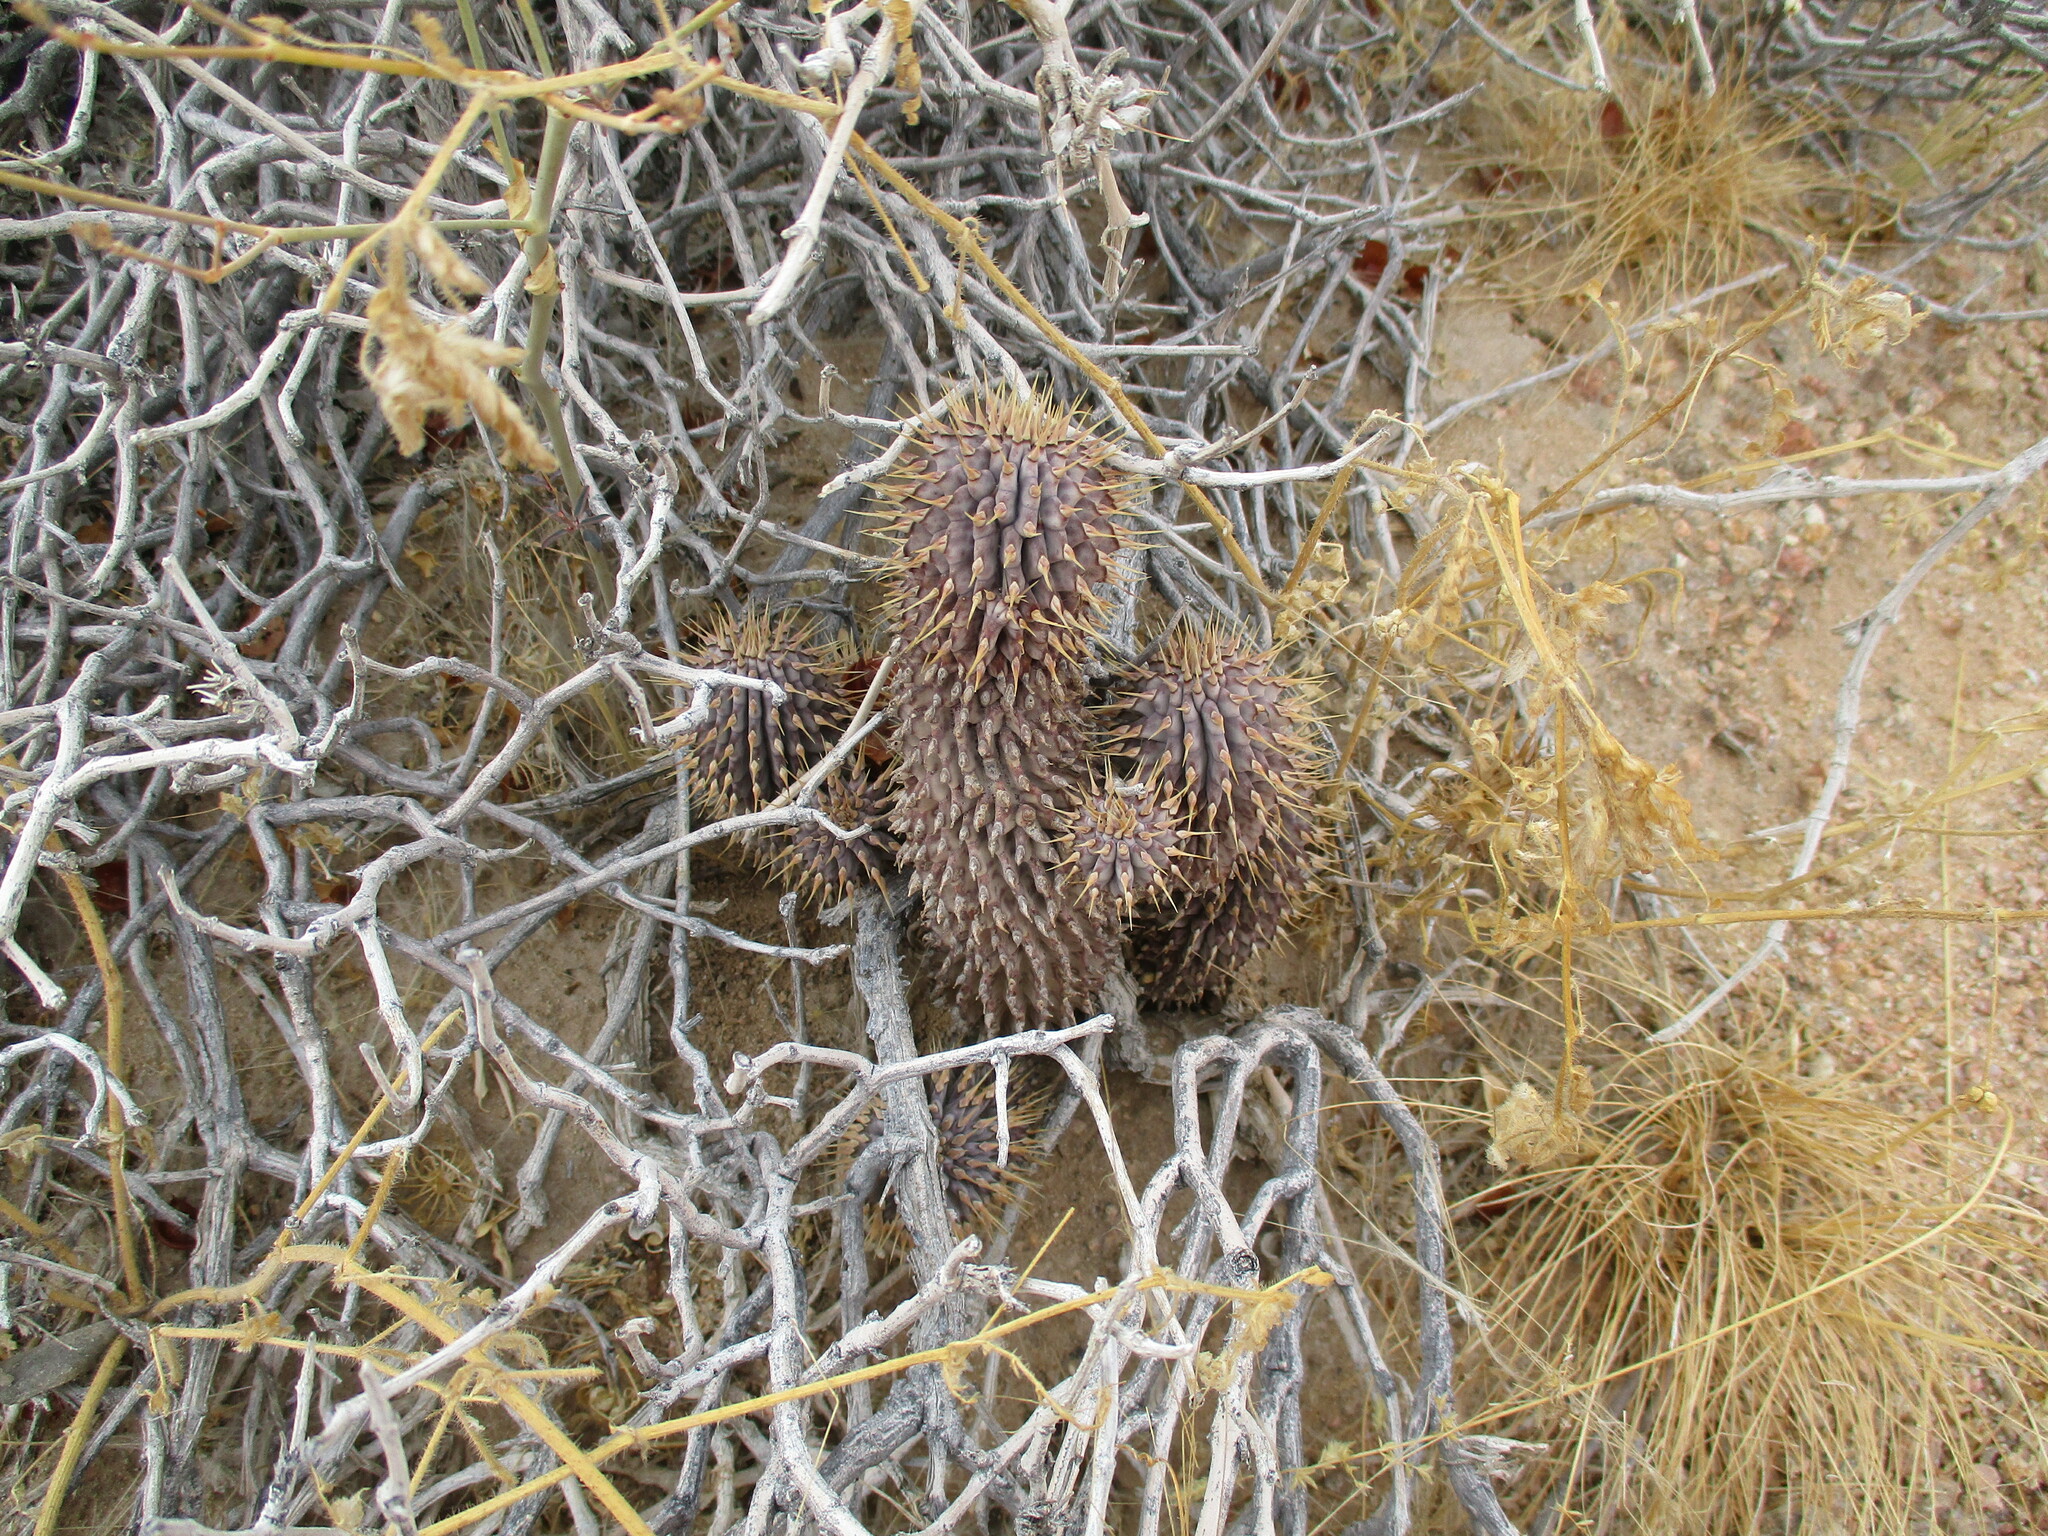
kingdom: Plantae
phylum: Tracheophyta
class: Magnoliopsida
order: Gentianales
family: Apocynaceae
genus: Ceropegia
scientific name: Ceropegia currorii
